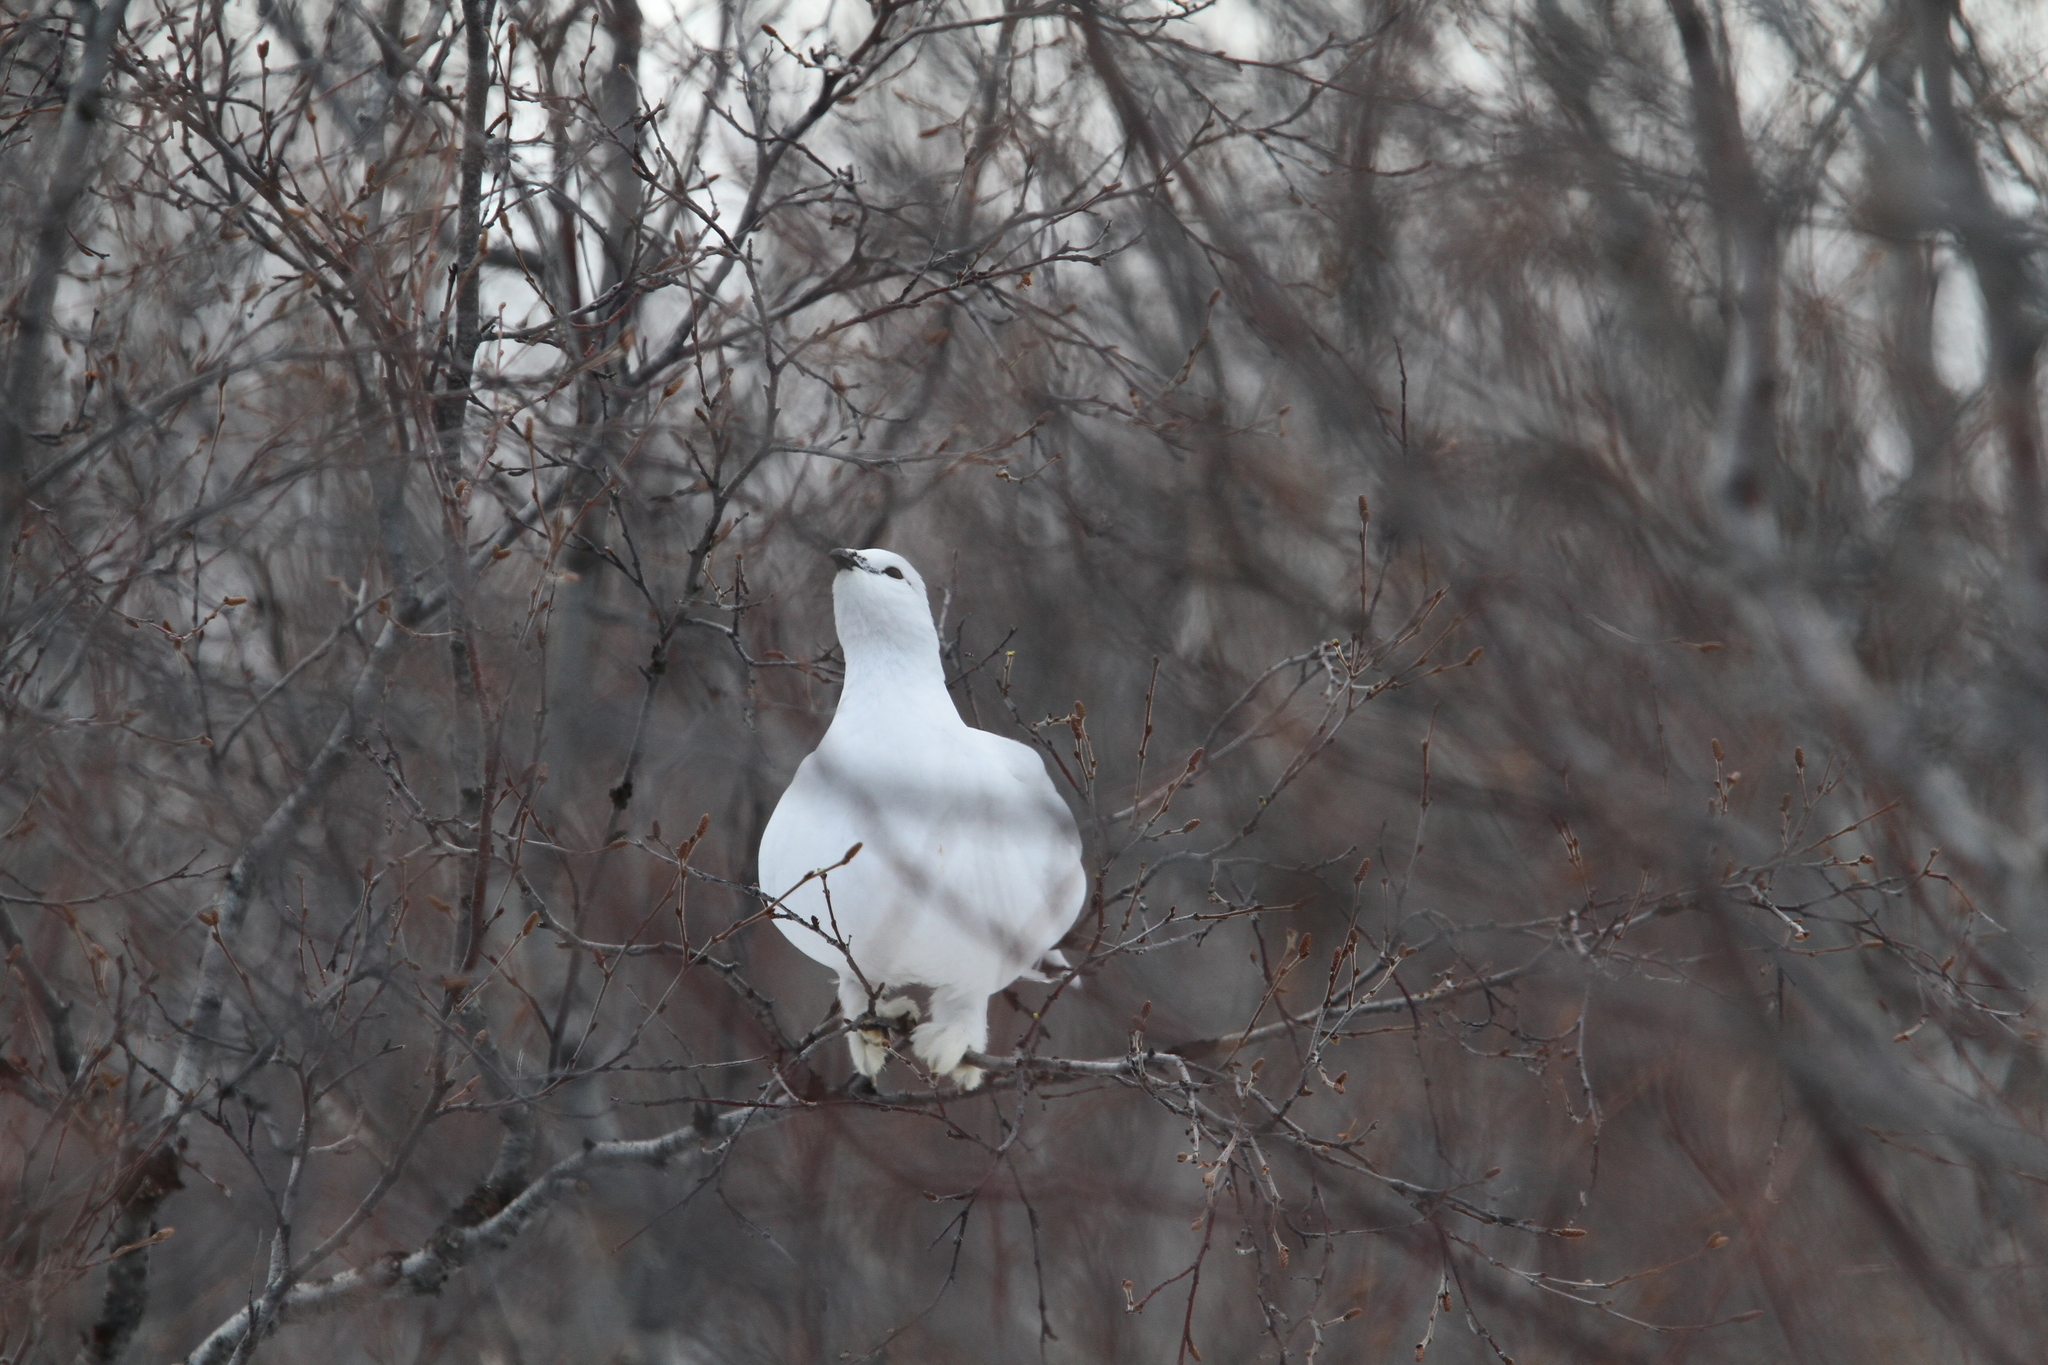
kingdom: Animalia
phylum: Chordata
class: Aves
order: Galliformes
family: Phasianidae
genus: Lagopus
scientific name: Lagopus muta
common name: Rock ptarmigan
